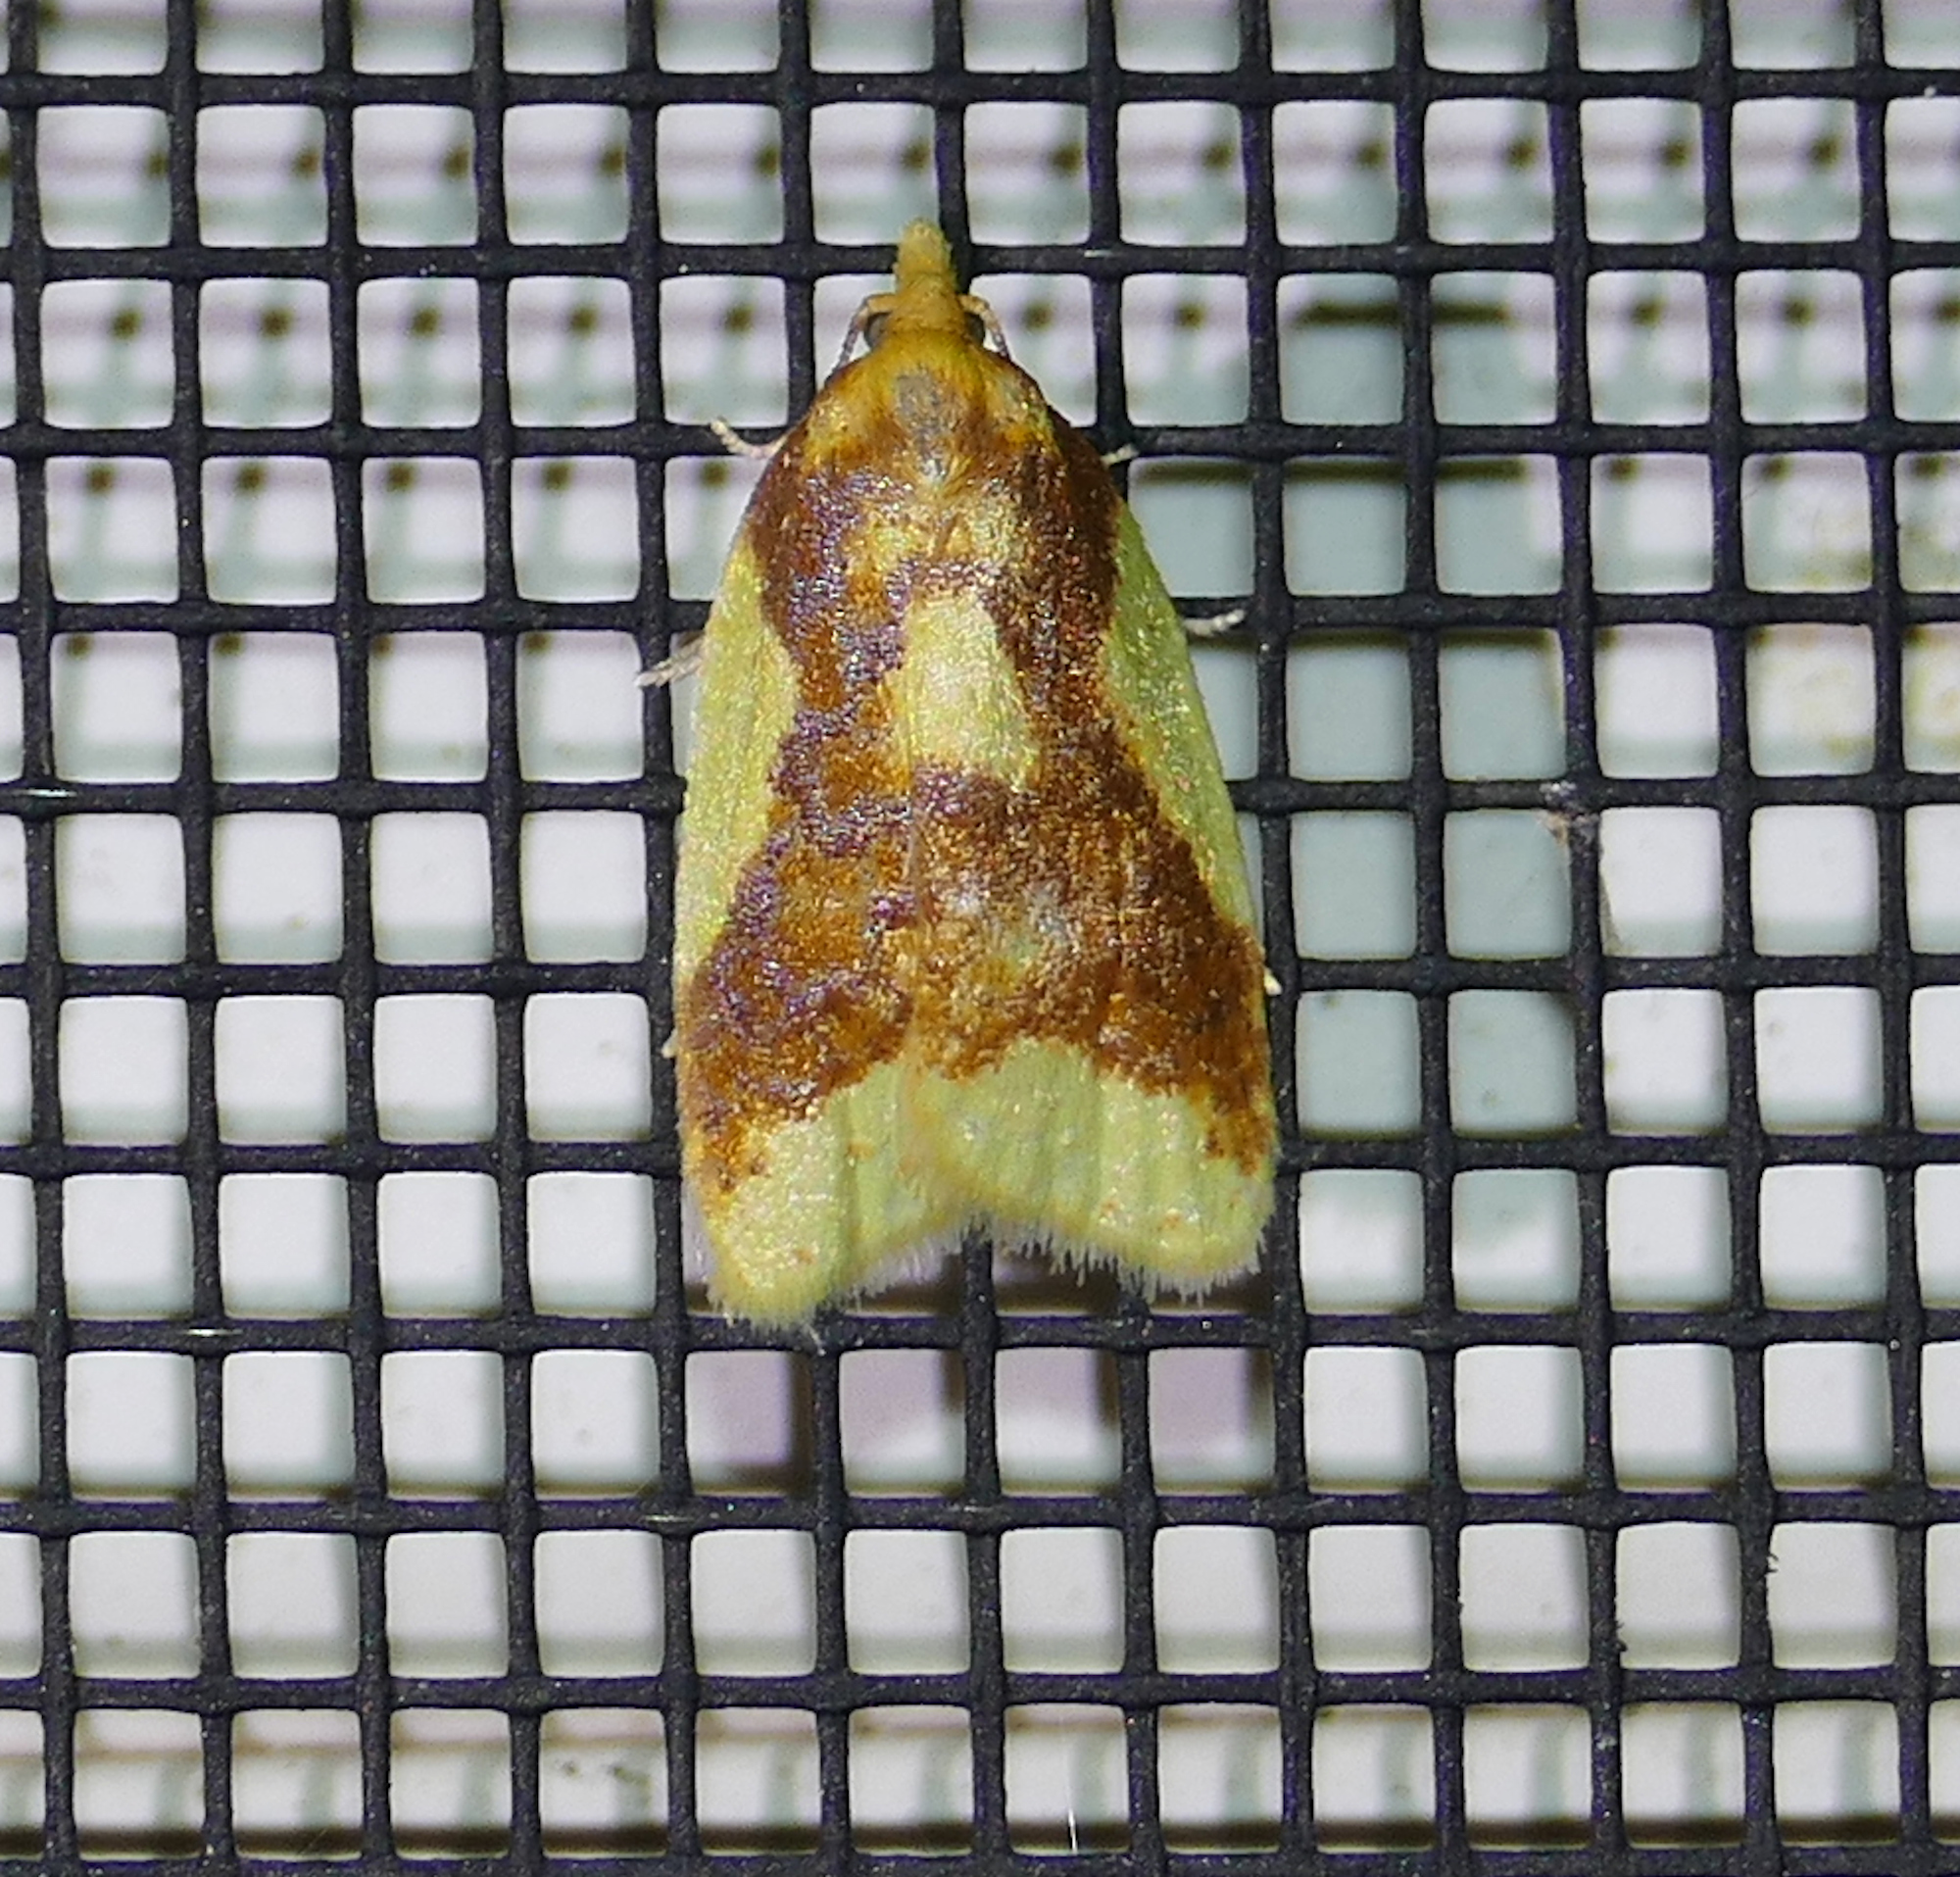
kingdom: Animalia
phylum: Arthropoda
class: Insecta
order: Lepidoptera
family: Tortricidae
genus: Sparganothis
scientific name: Sparganothis pulcherrimana
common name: Beautiful sparganothis
